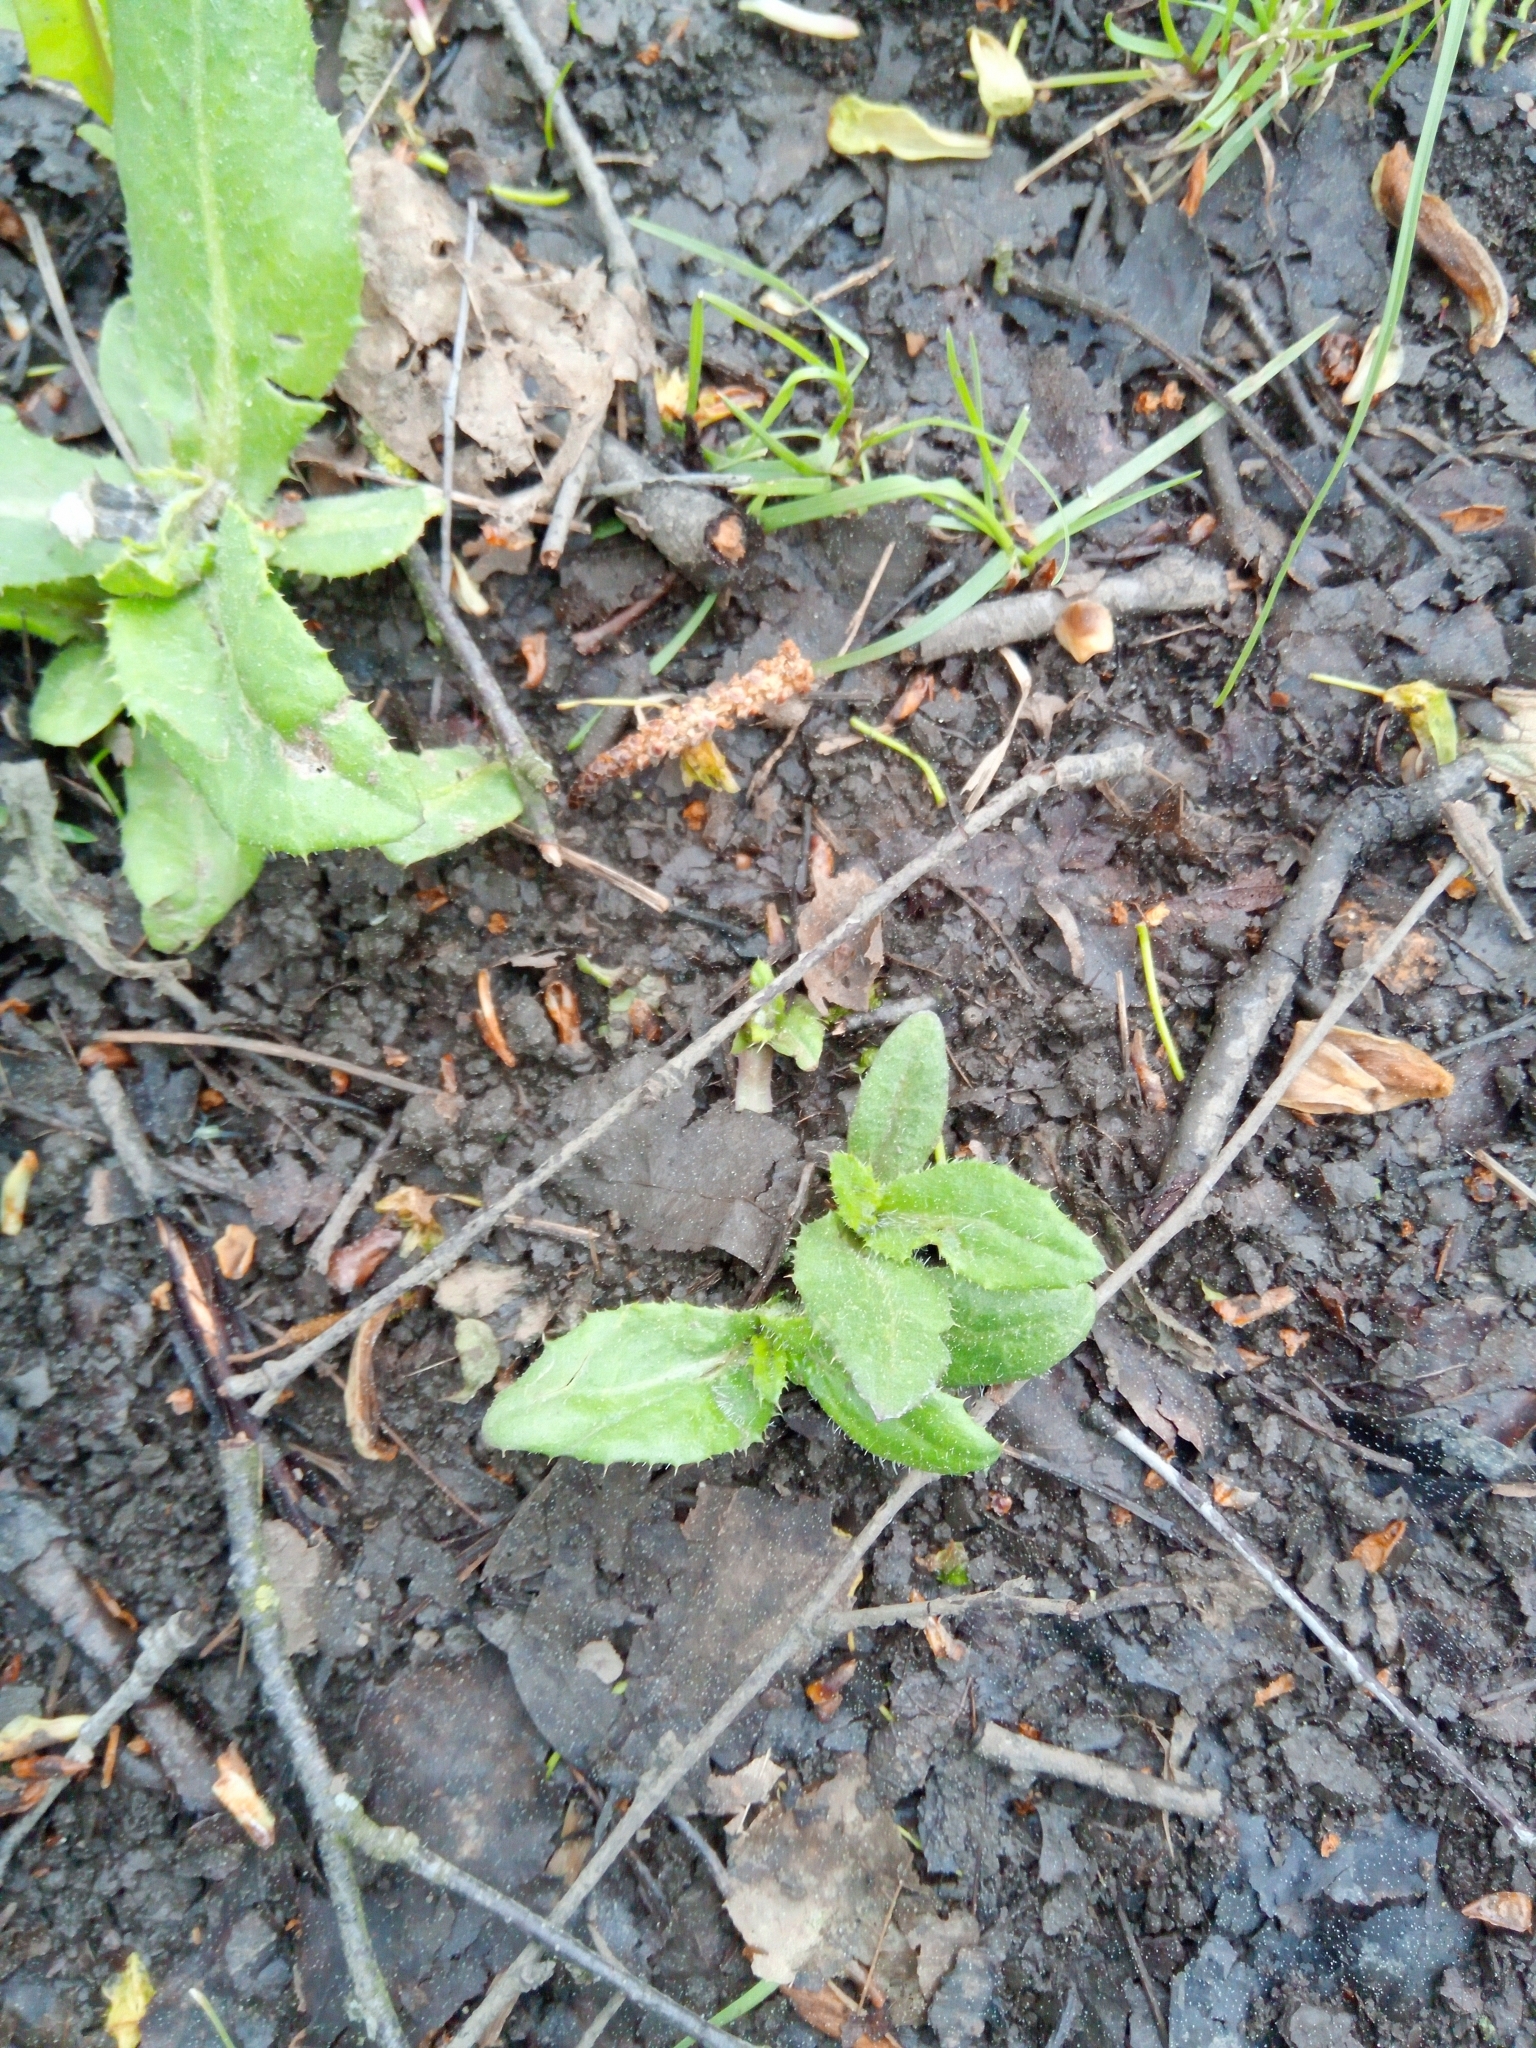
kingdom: Plantae
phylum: Tracheophyta
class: Magnoliopsida
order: Asterales
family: Asteraceae
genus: Cirsium
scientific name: Cirsium arvense
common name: Creeping thistle
